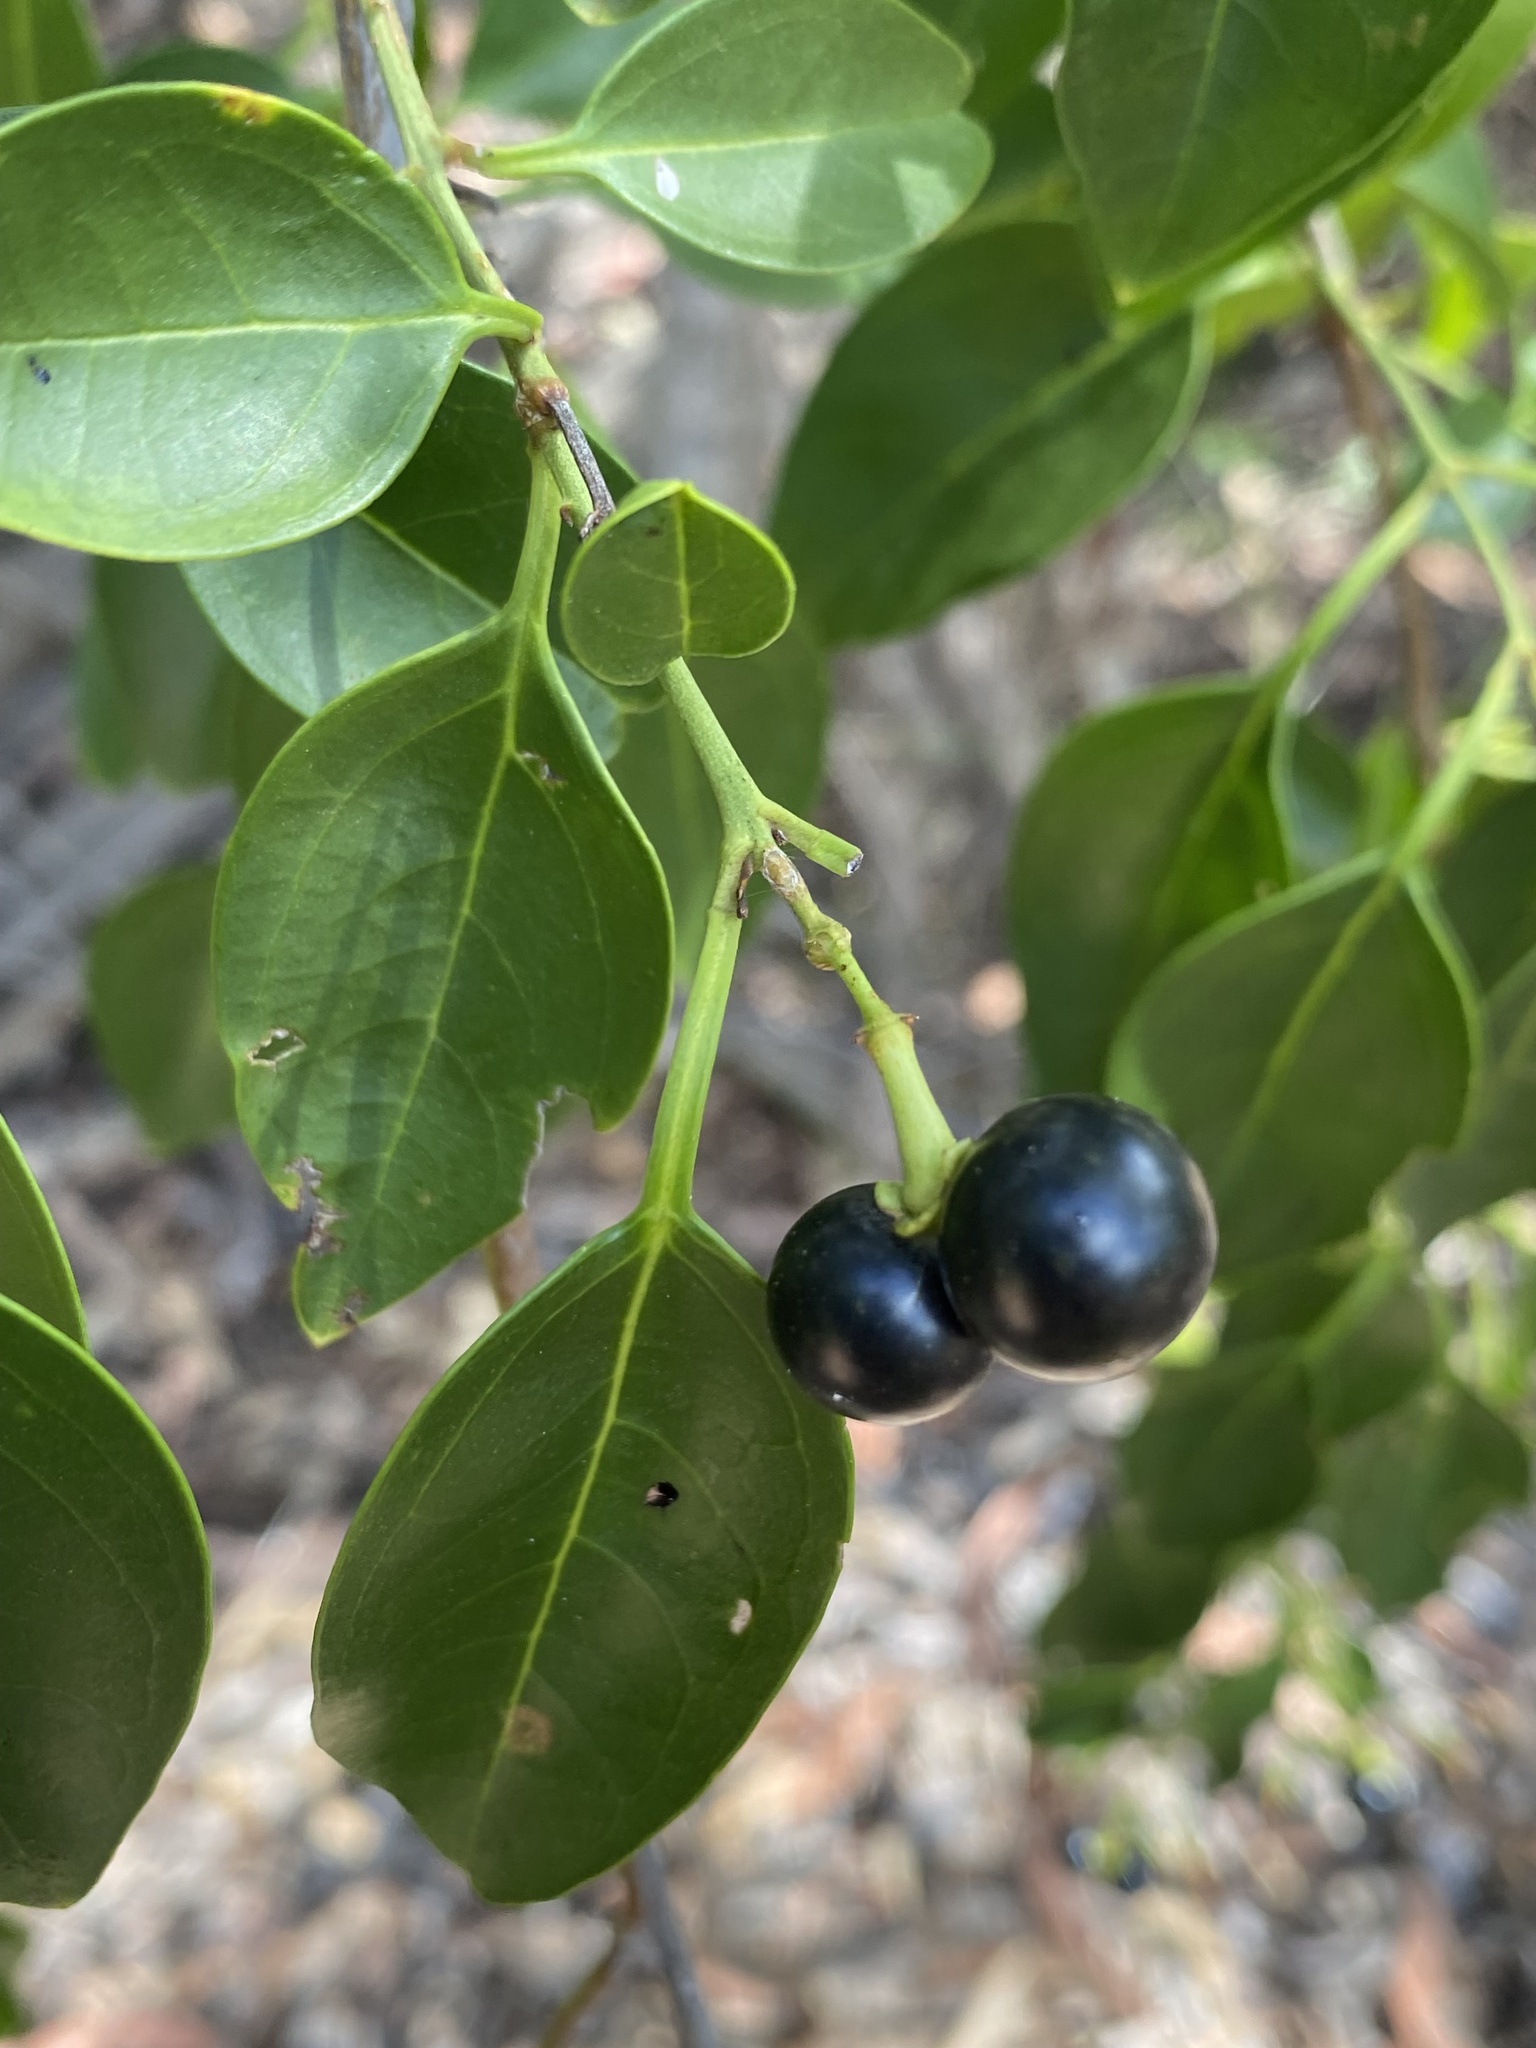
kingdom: Plantae
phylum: Tracheophyta
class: Magnoliopsida
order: Lamiales
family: Oleaceae
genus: Jasminum
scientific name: Jasminum simplicifolium
